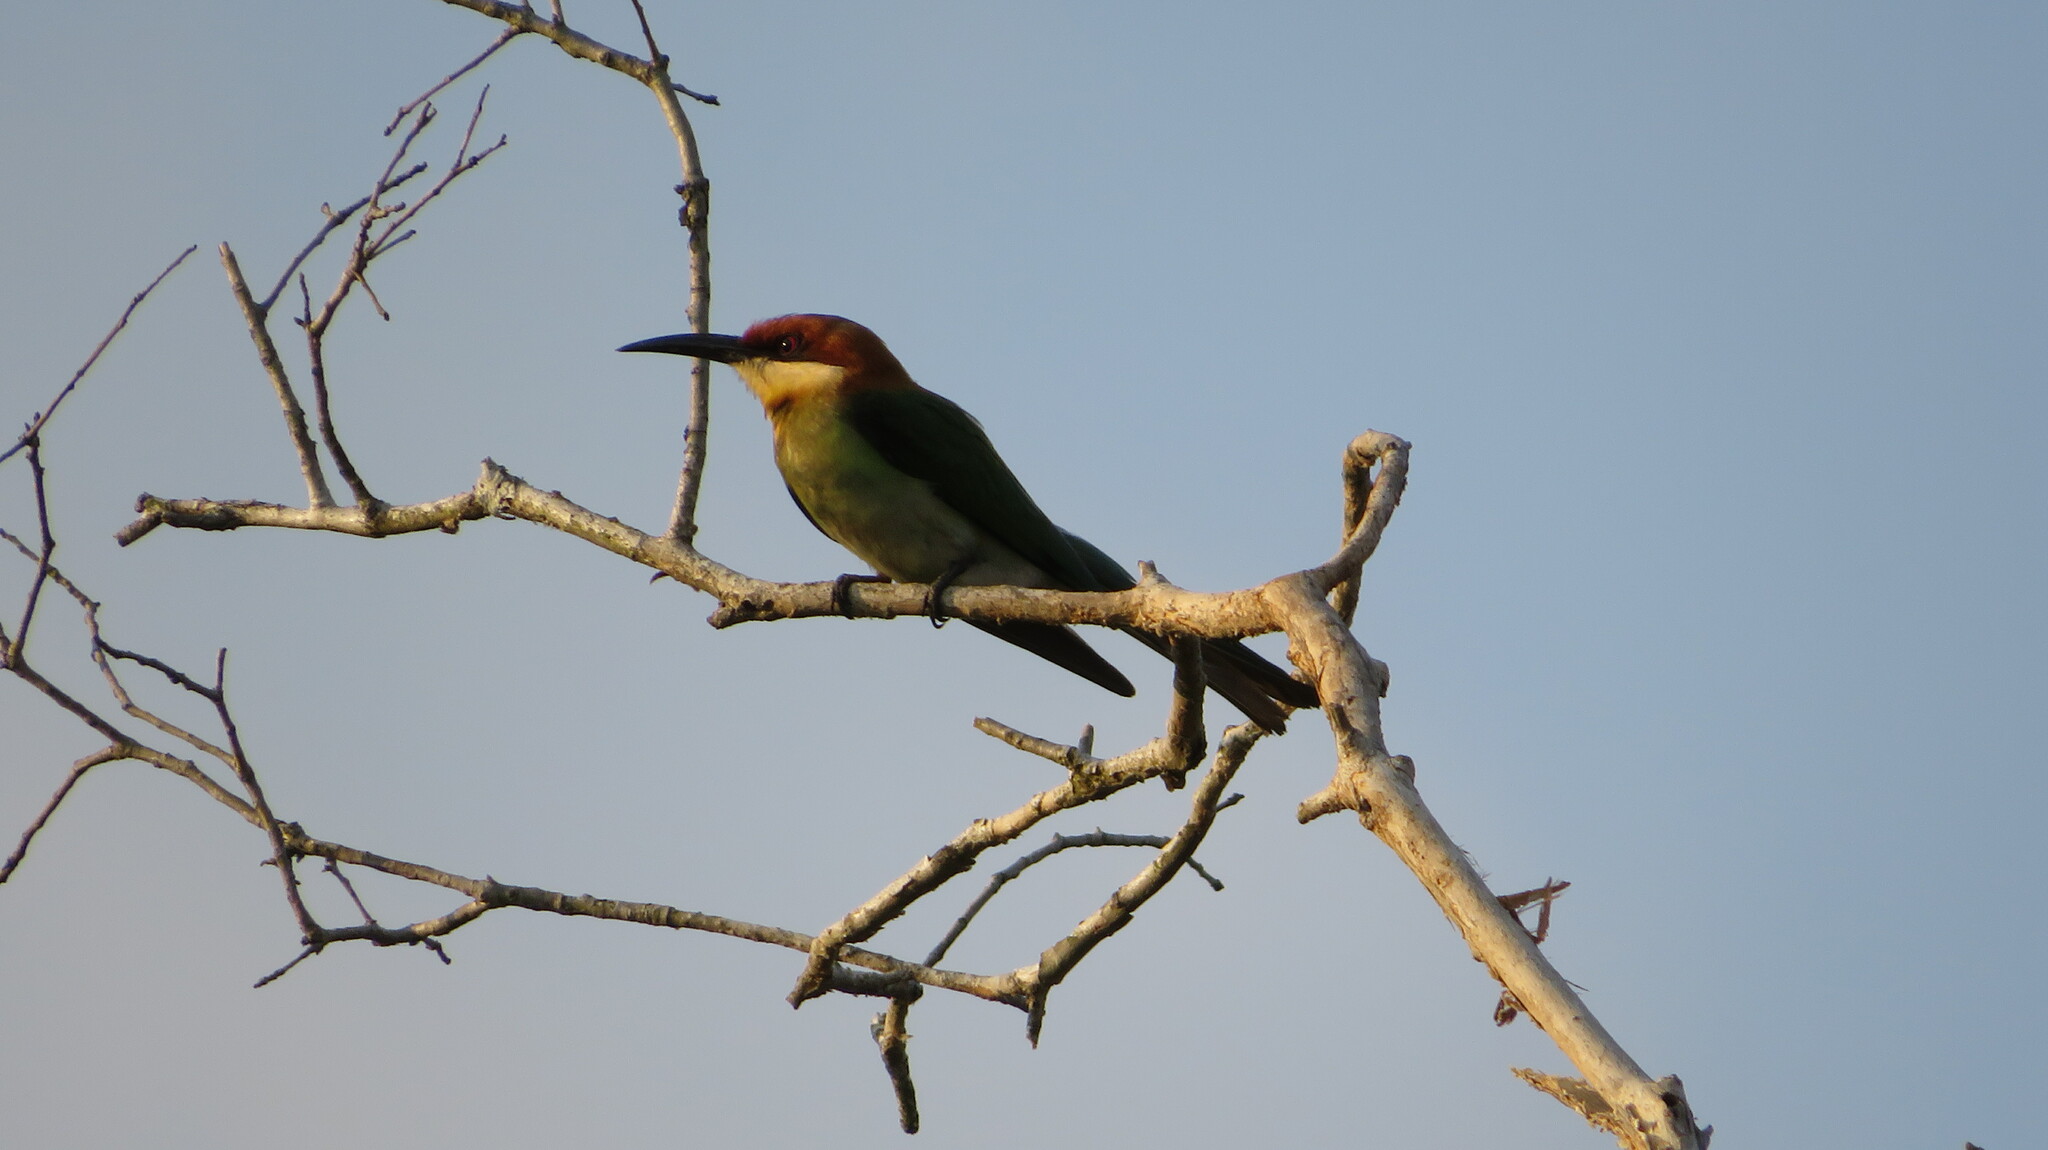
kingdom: Animalia
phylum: Chordata
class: Aves
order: Coraciiformes
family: Meropidae
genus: Merops
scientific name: Merops leschenaulti
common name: Chestnut-headed bee-eater
